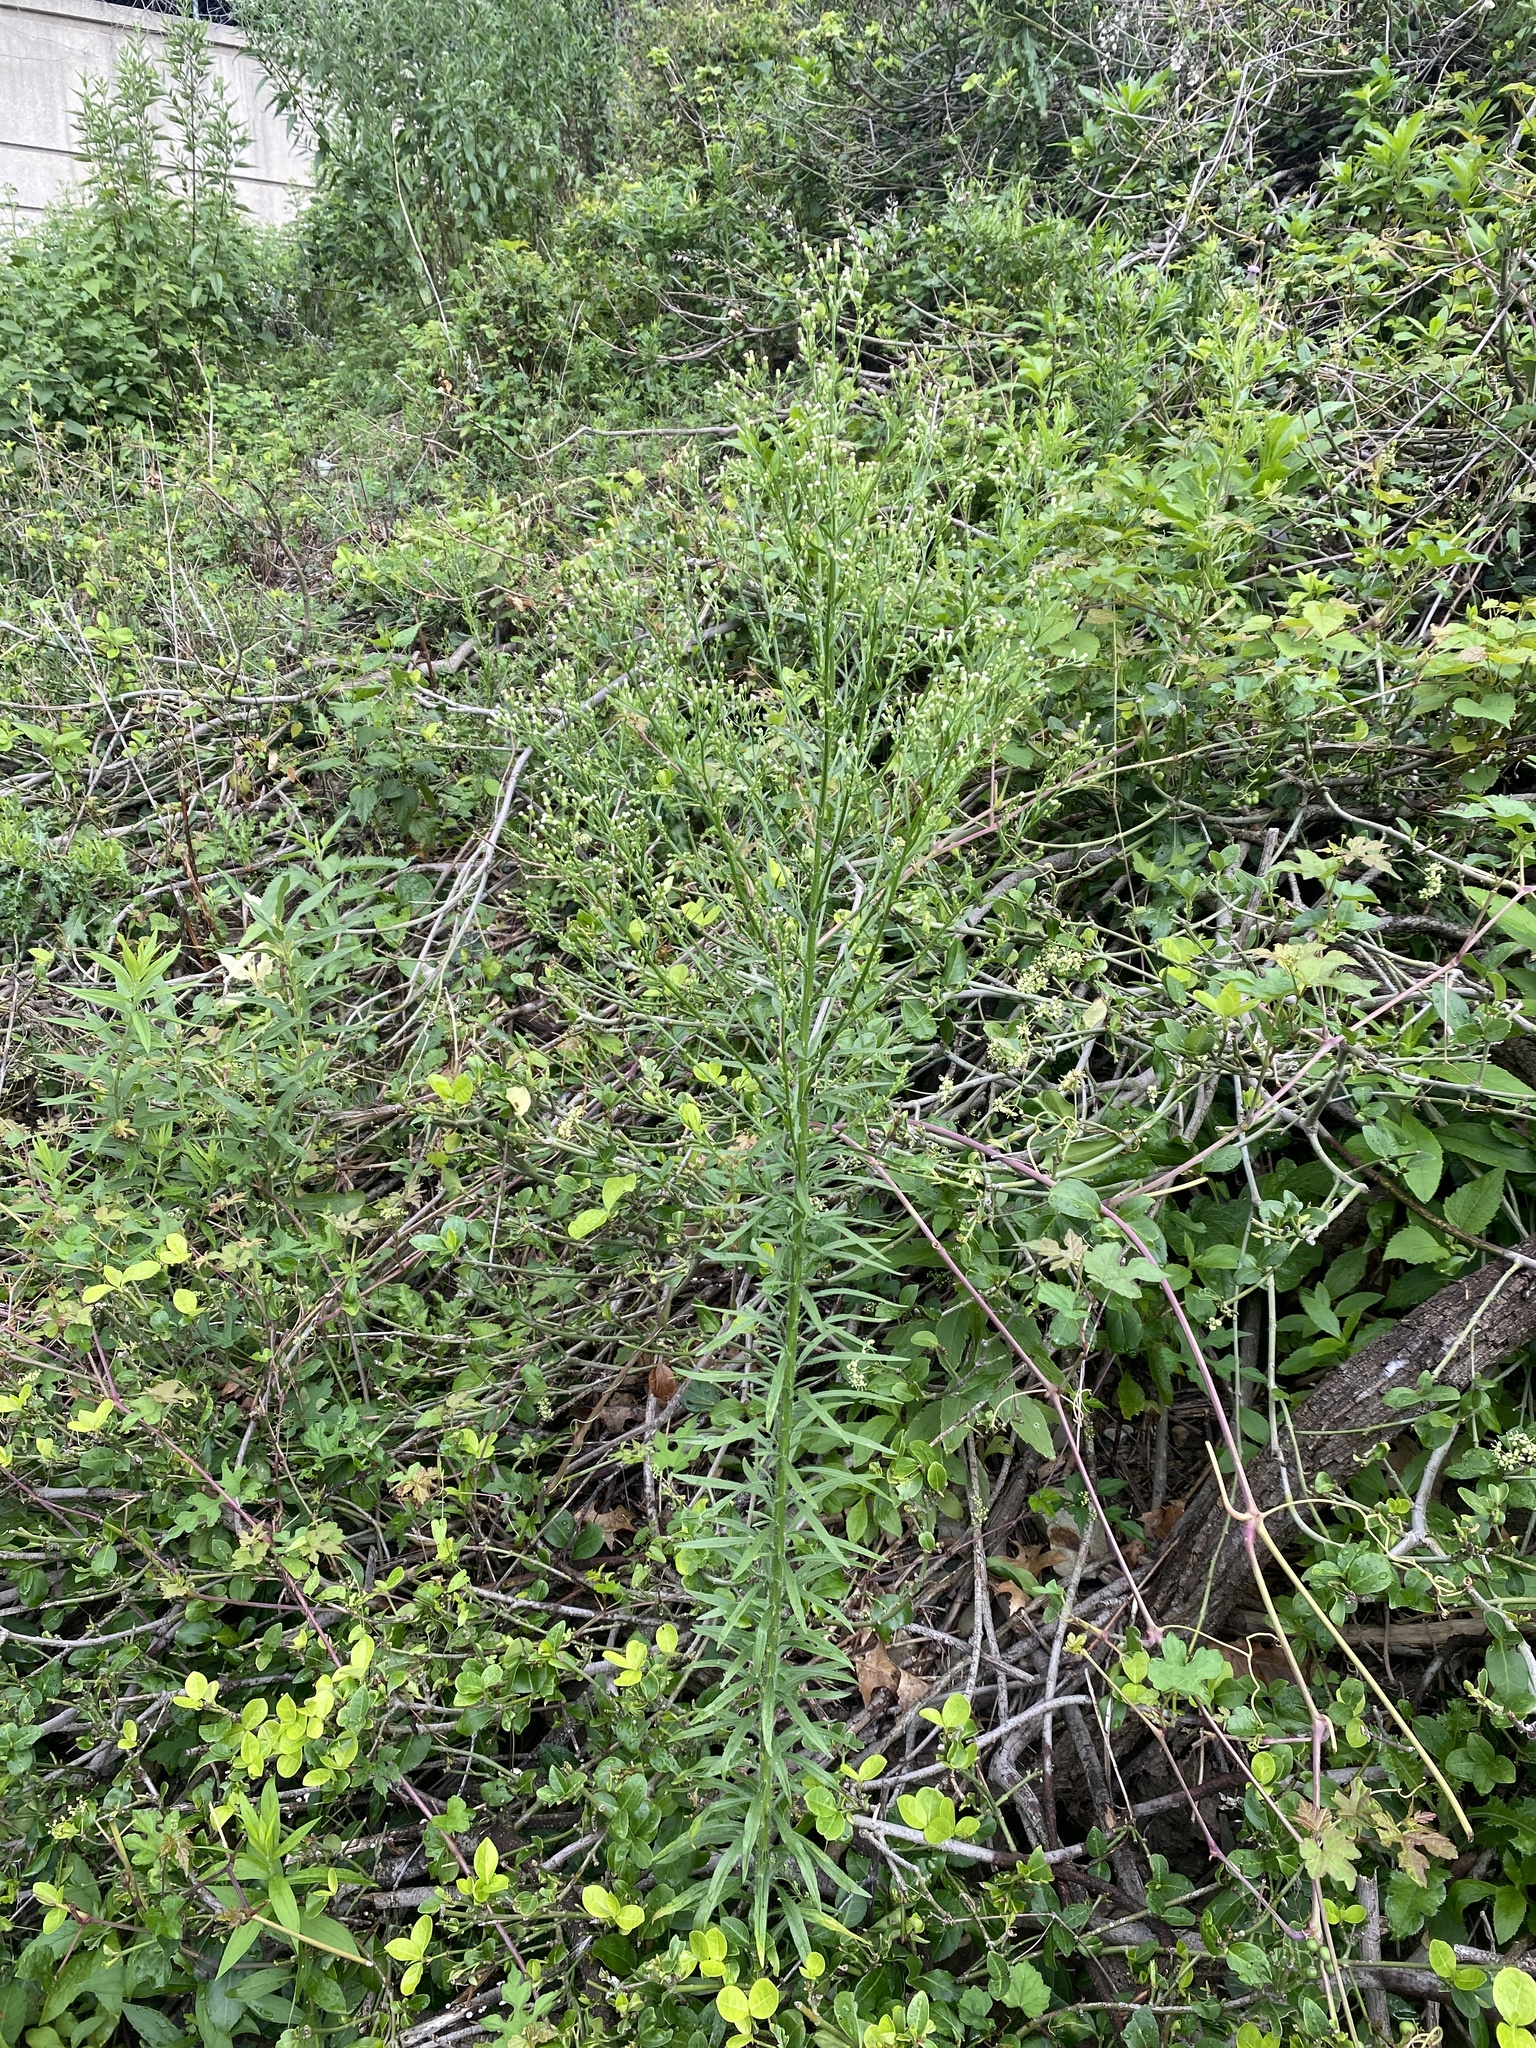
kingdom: Plantae
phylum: Tracheophyta
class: Magnoliopsida
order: Asterales
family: Asteraceae
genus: Erigeron
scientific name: Erigeron canadensis
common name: Canadian fleabane
